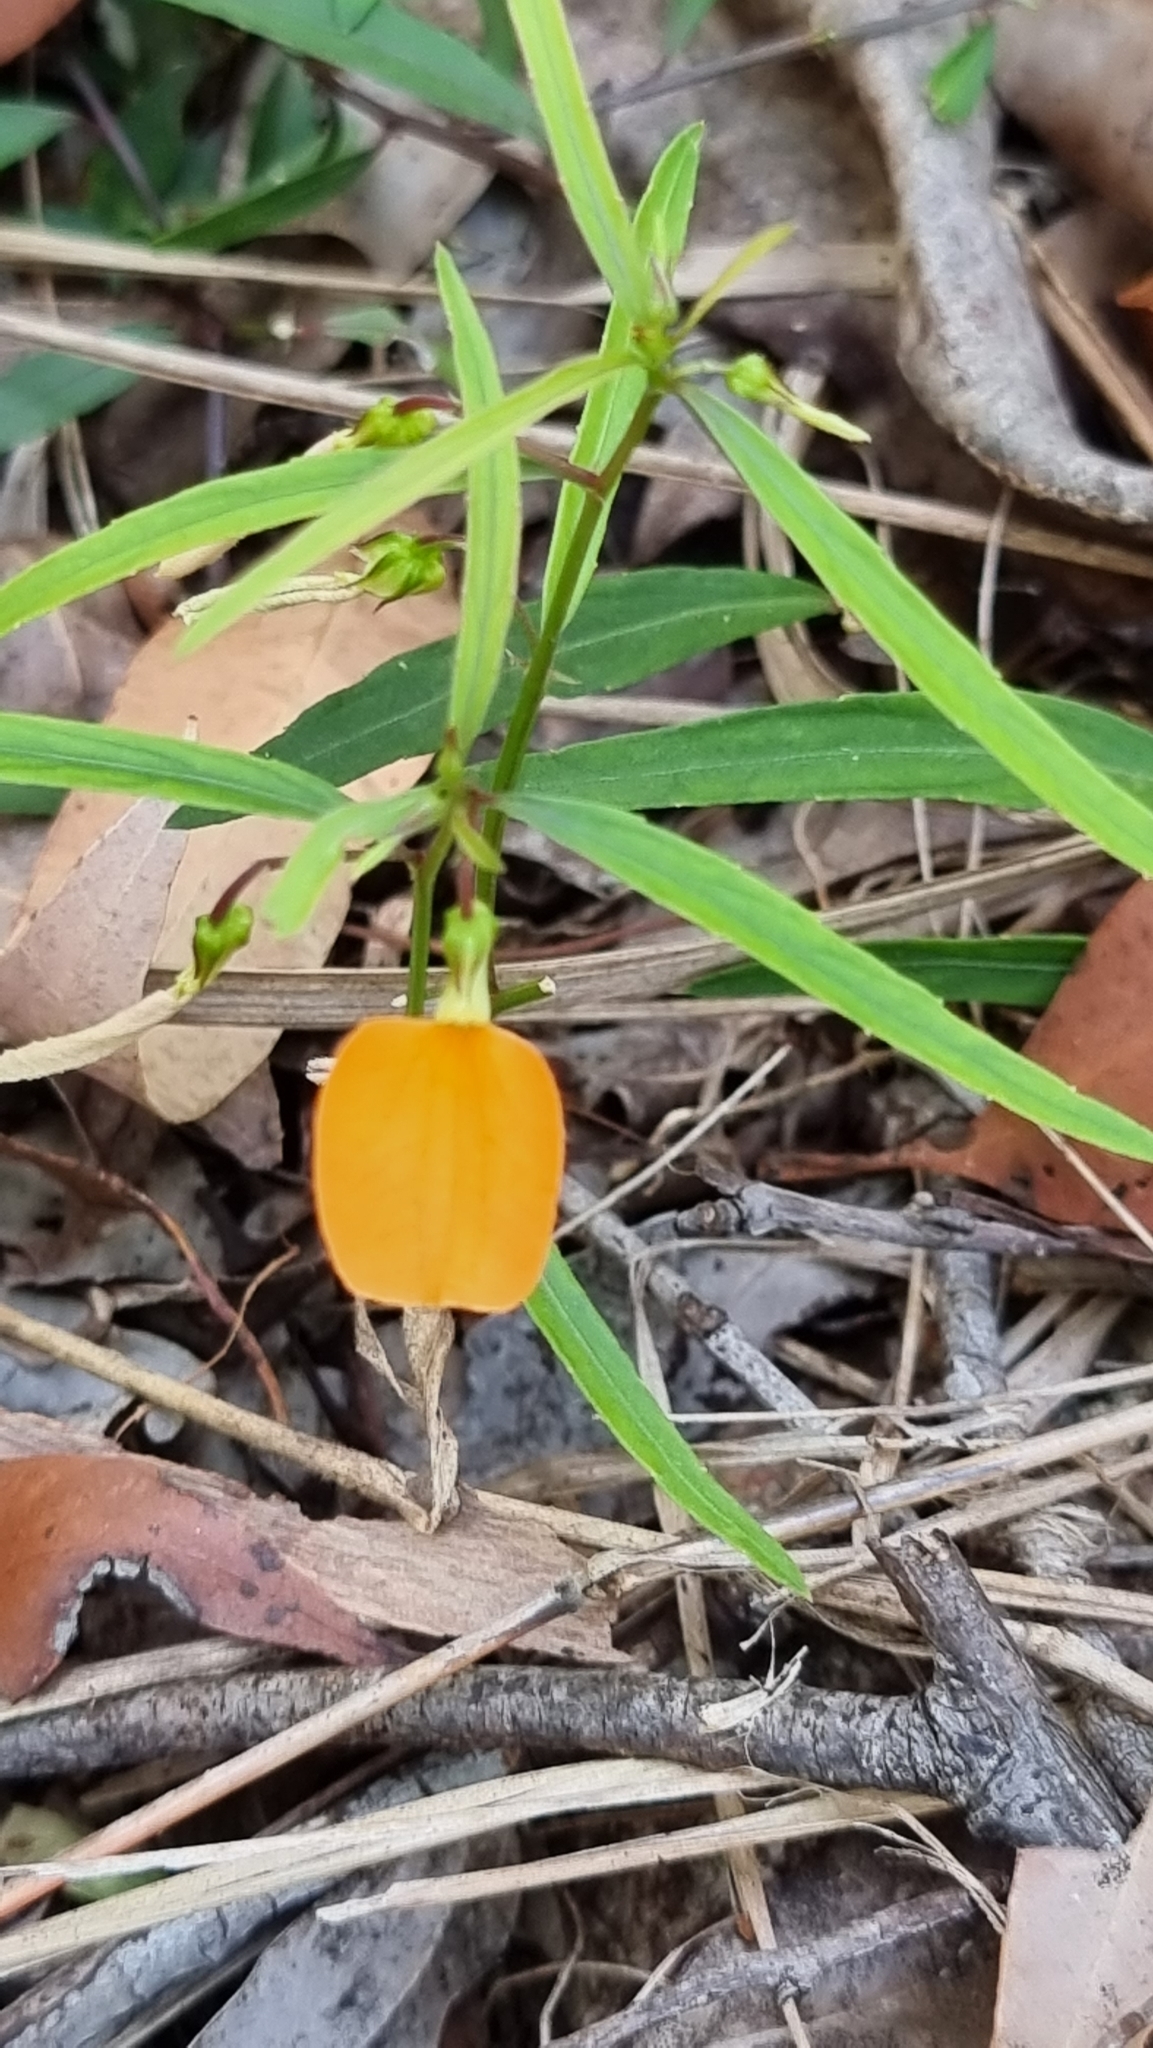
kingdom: Plantae
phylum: Tracheophyta
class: Magnoliopsida
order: Malpighiales
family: Violaceae
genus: Pigea
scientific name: Pigea stellarioides
